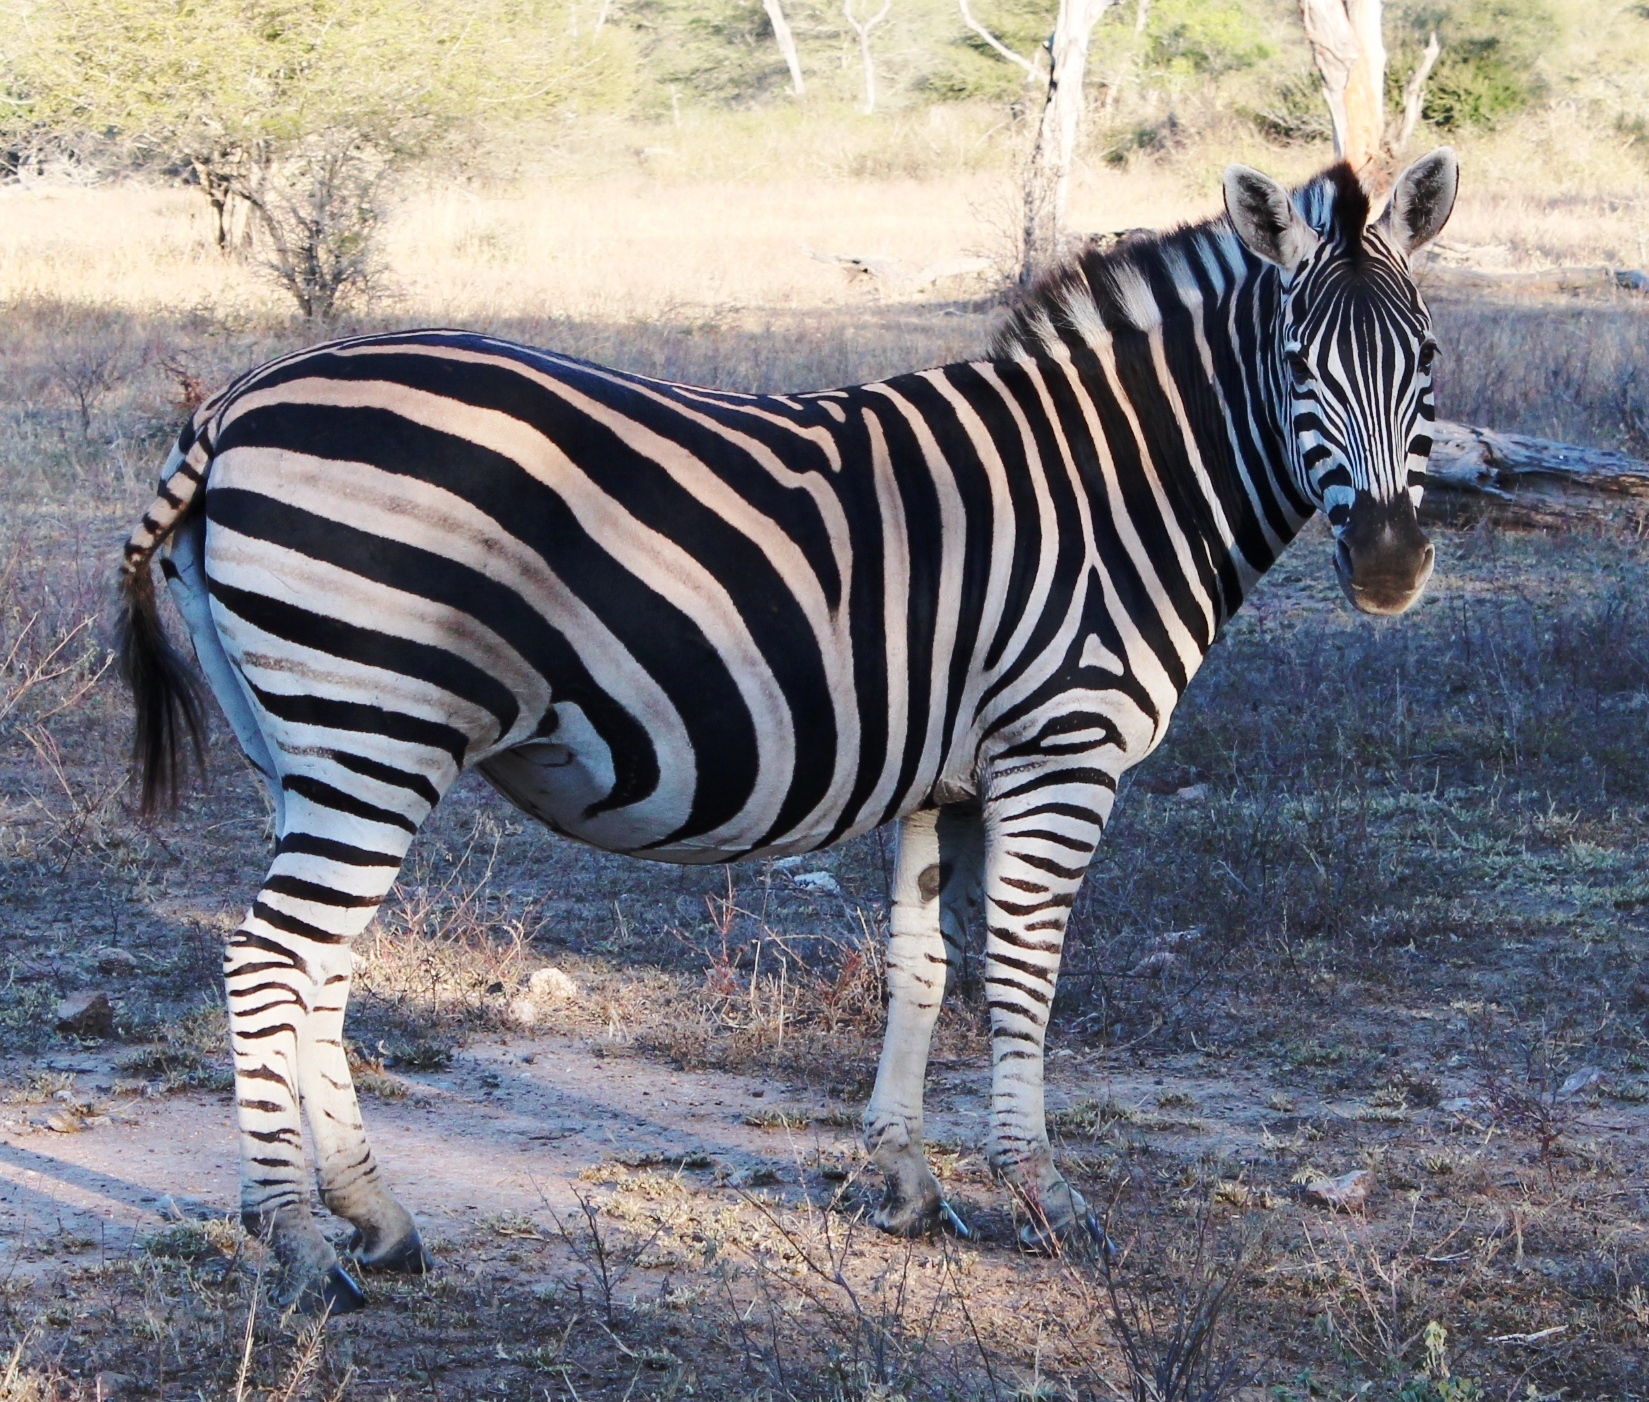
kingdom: Animalia
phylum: Chordata
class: Mammalia
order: Perissodactyla
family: Equidae
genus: Equus
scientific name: Equus quagga
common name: Plains zebra
